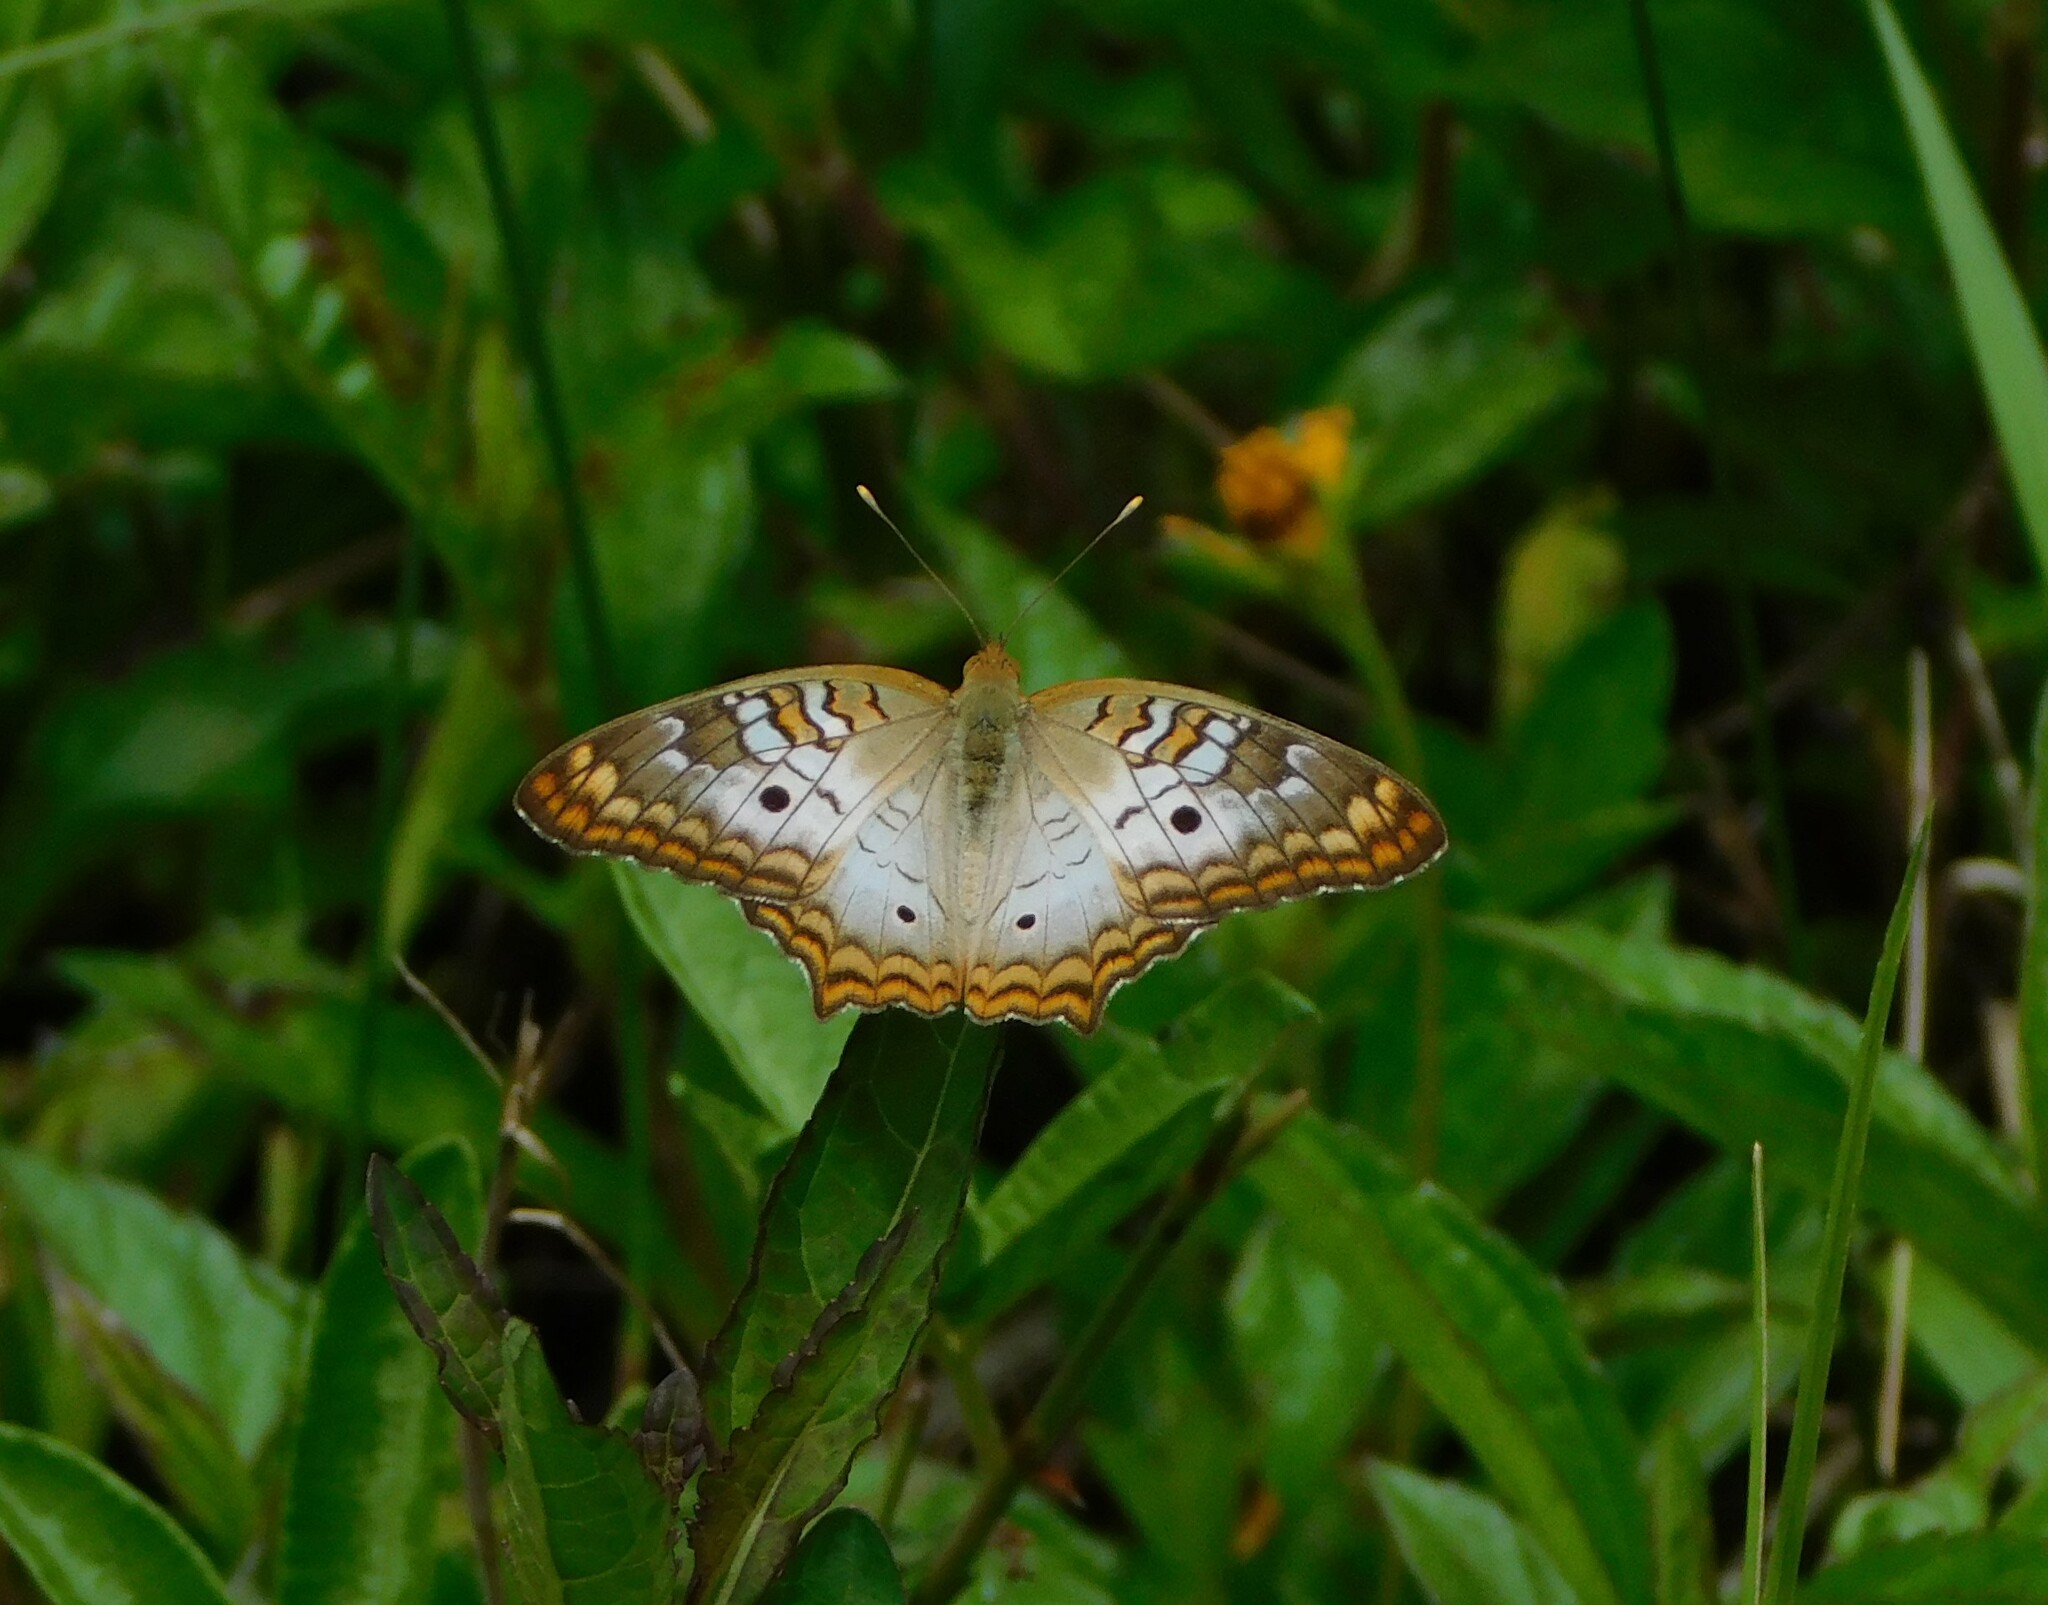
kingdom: Animalia
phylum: Arthropoda
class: Insecta
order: Lepidoptera
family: Nymphalidae
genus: Anartia
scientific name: Anartia jatrophae
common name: White peacock
